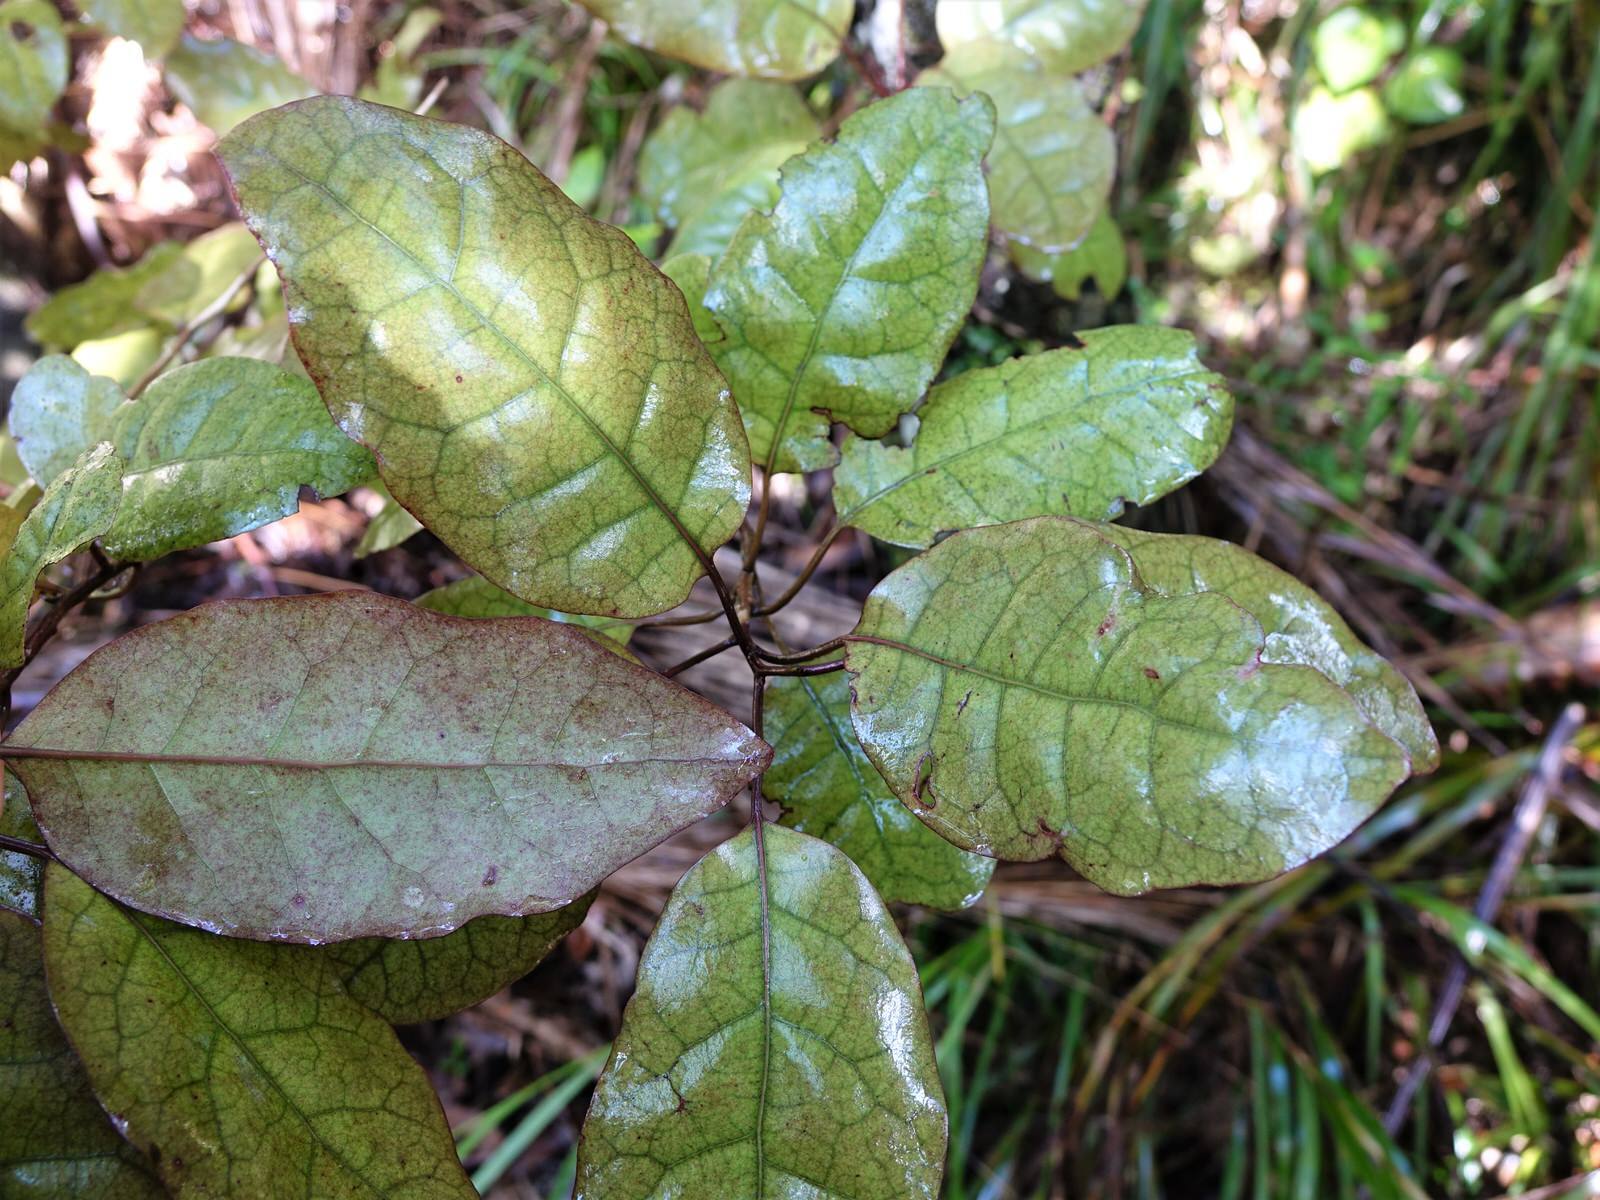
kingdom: Plantae
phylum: Tracheophyta
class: Magnoliopsida
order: Laurales
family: Lauraceae
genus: Litsea
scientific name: Litsea calicaris
